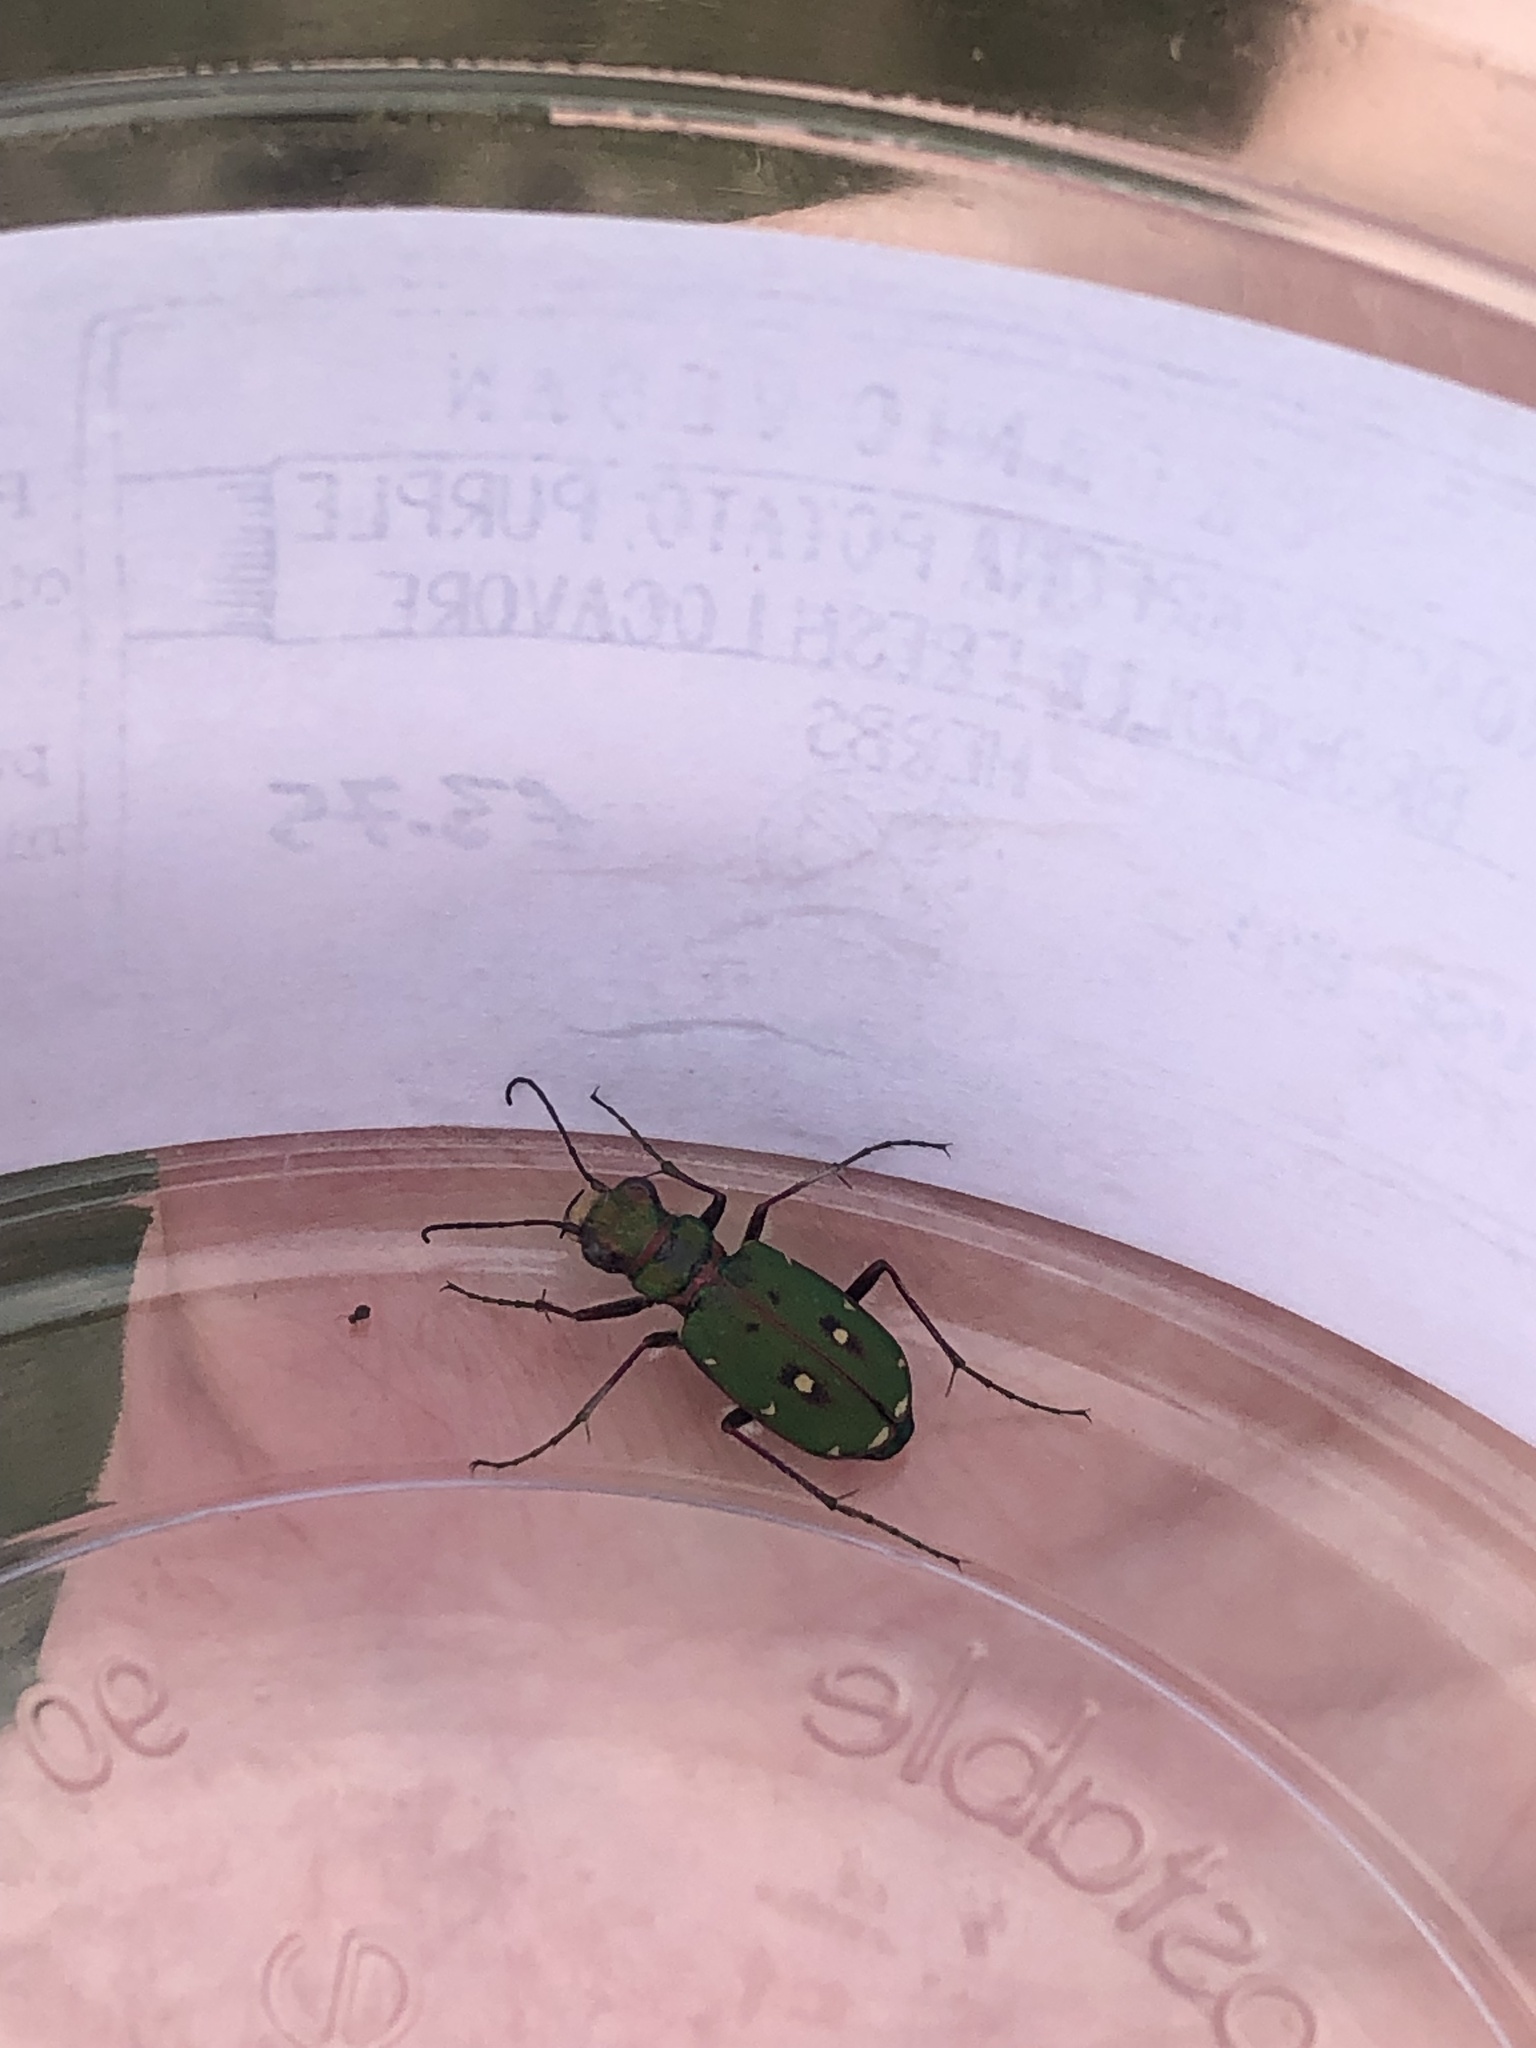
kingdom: Animalia
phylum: Arthropoda
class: Insecta
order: Coleoptera
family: Carabidae
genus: Cicindela
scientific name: Cicindela campestris
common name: Common tiger beetle
